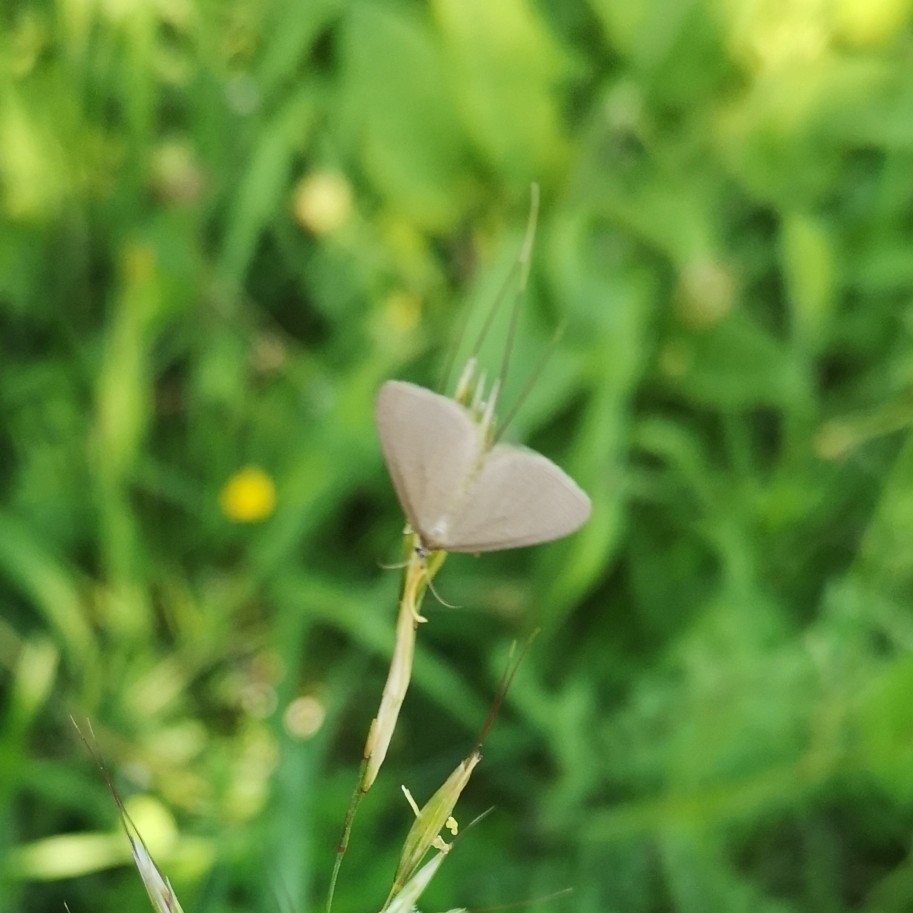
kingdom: Animalia
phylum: Arthropoda
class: Insecta
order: Lepidoptera
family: Geometridae
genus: Minoa
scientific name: Minoa murinata
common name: Drab looper
